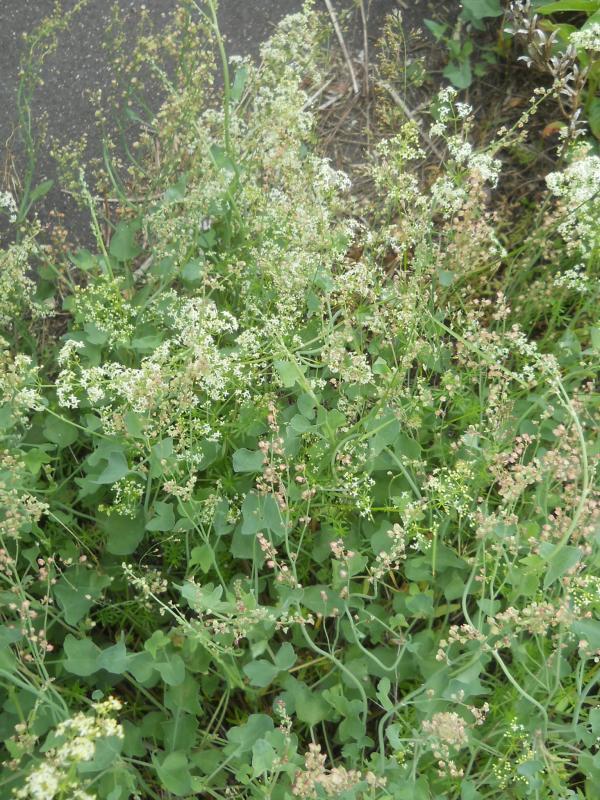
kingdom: Plantae
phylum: Tracheophyta
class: Magnoliopsida
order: Caryophyllales
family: Polygonaceae
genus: Rumex
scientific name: Rumex scutatus
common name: French sorrel
